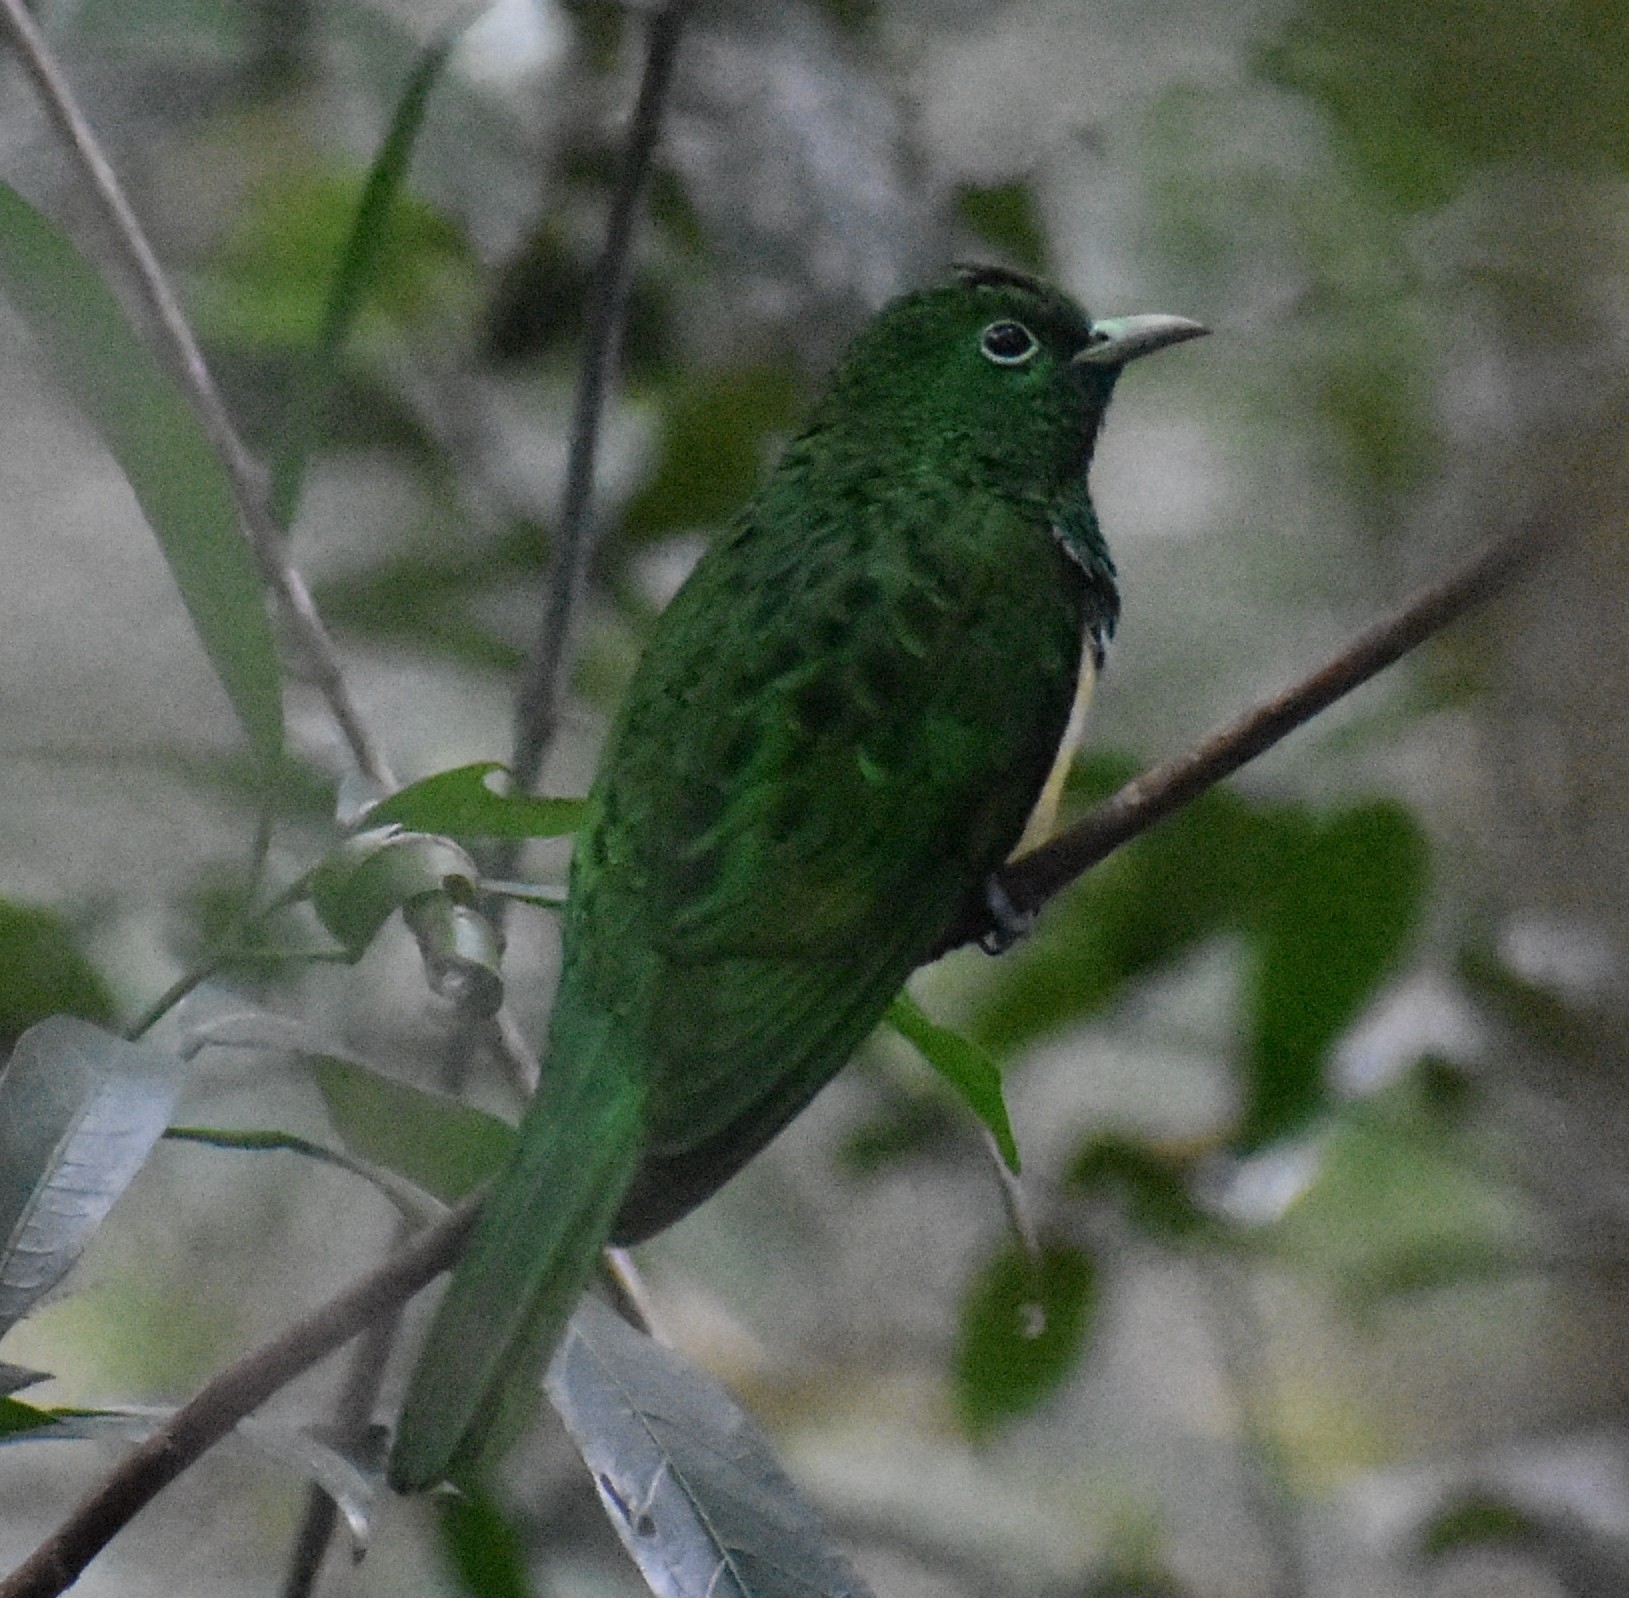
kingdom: Animalia
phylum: Chordata
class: Aves
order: Cuculiformes
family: Cuculidae
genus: Chrysococcyx
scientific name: Chrysococcyx cupreus
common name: African emerald cuckoo
